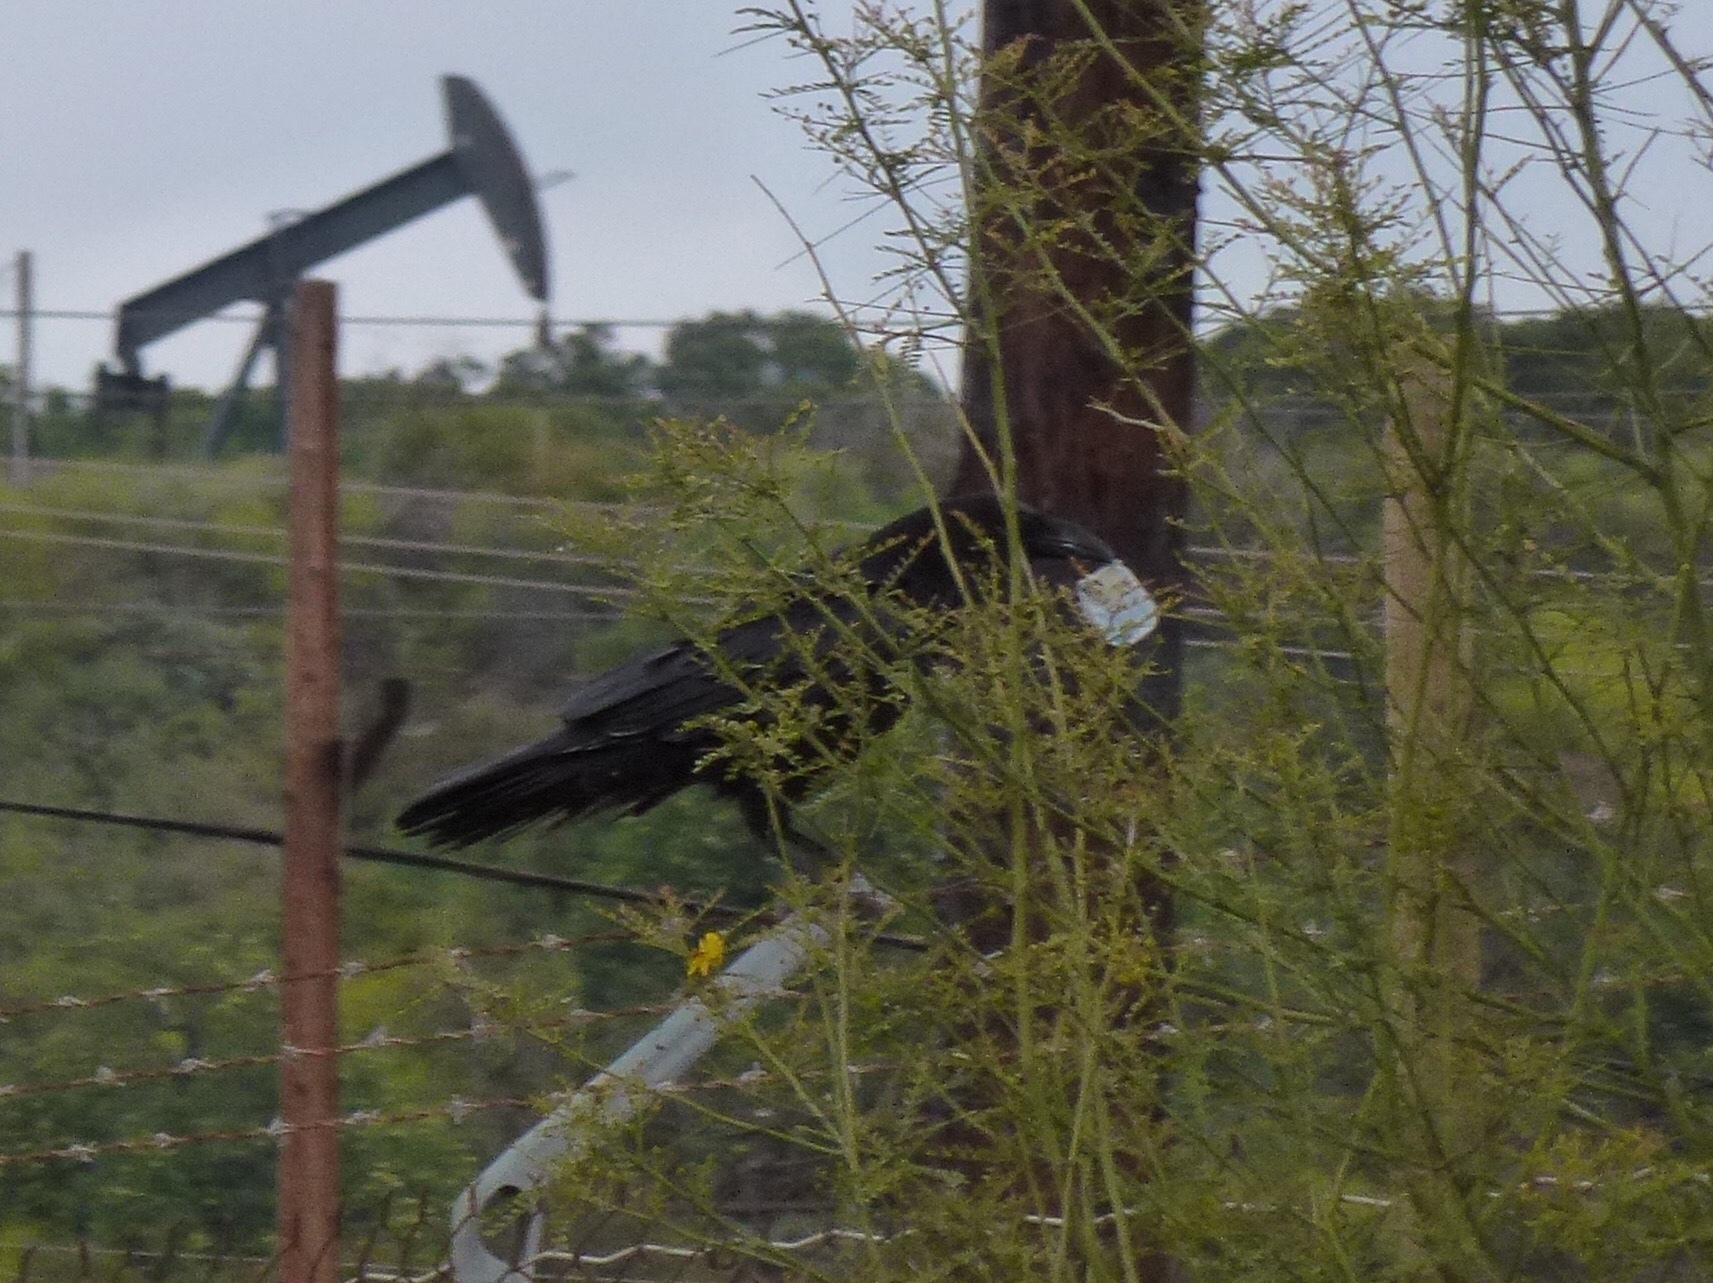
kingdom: Animalia
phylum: Chordata
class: Aves
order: Passeriformes
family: Corvidae
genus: Corvus
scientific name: Corvus corax
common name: Common raven
